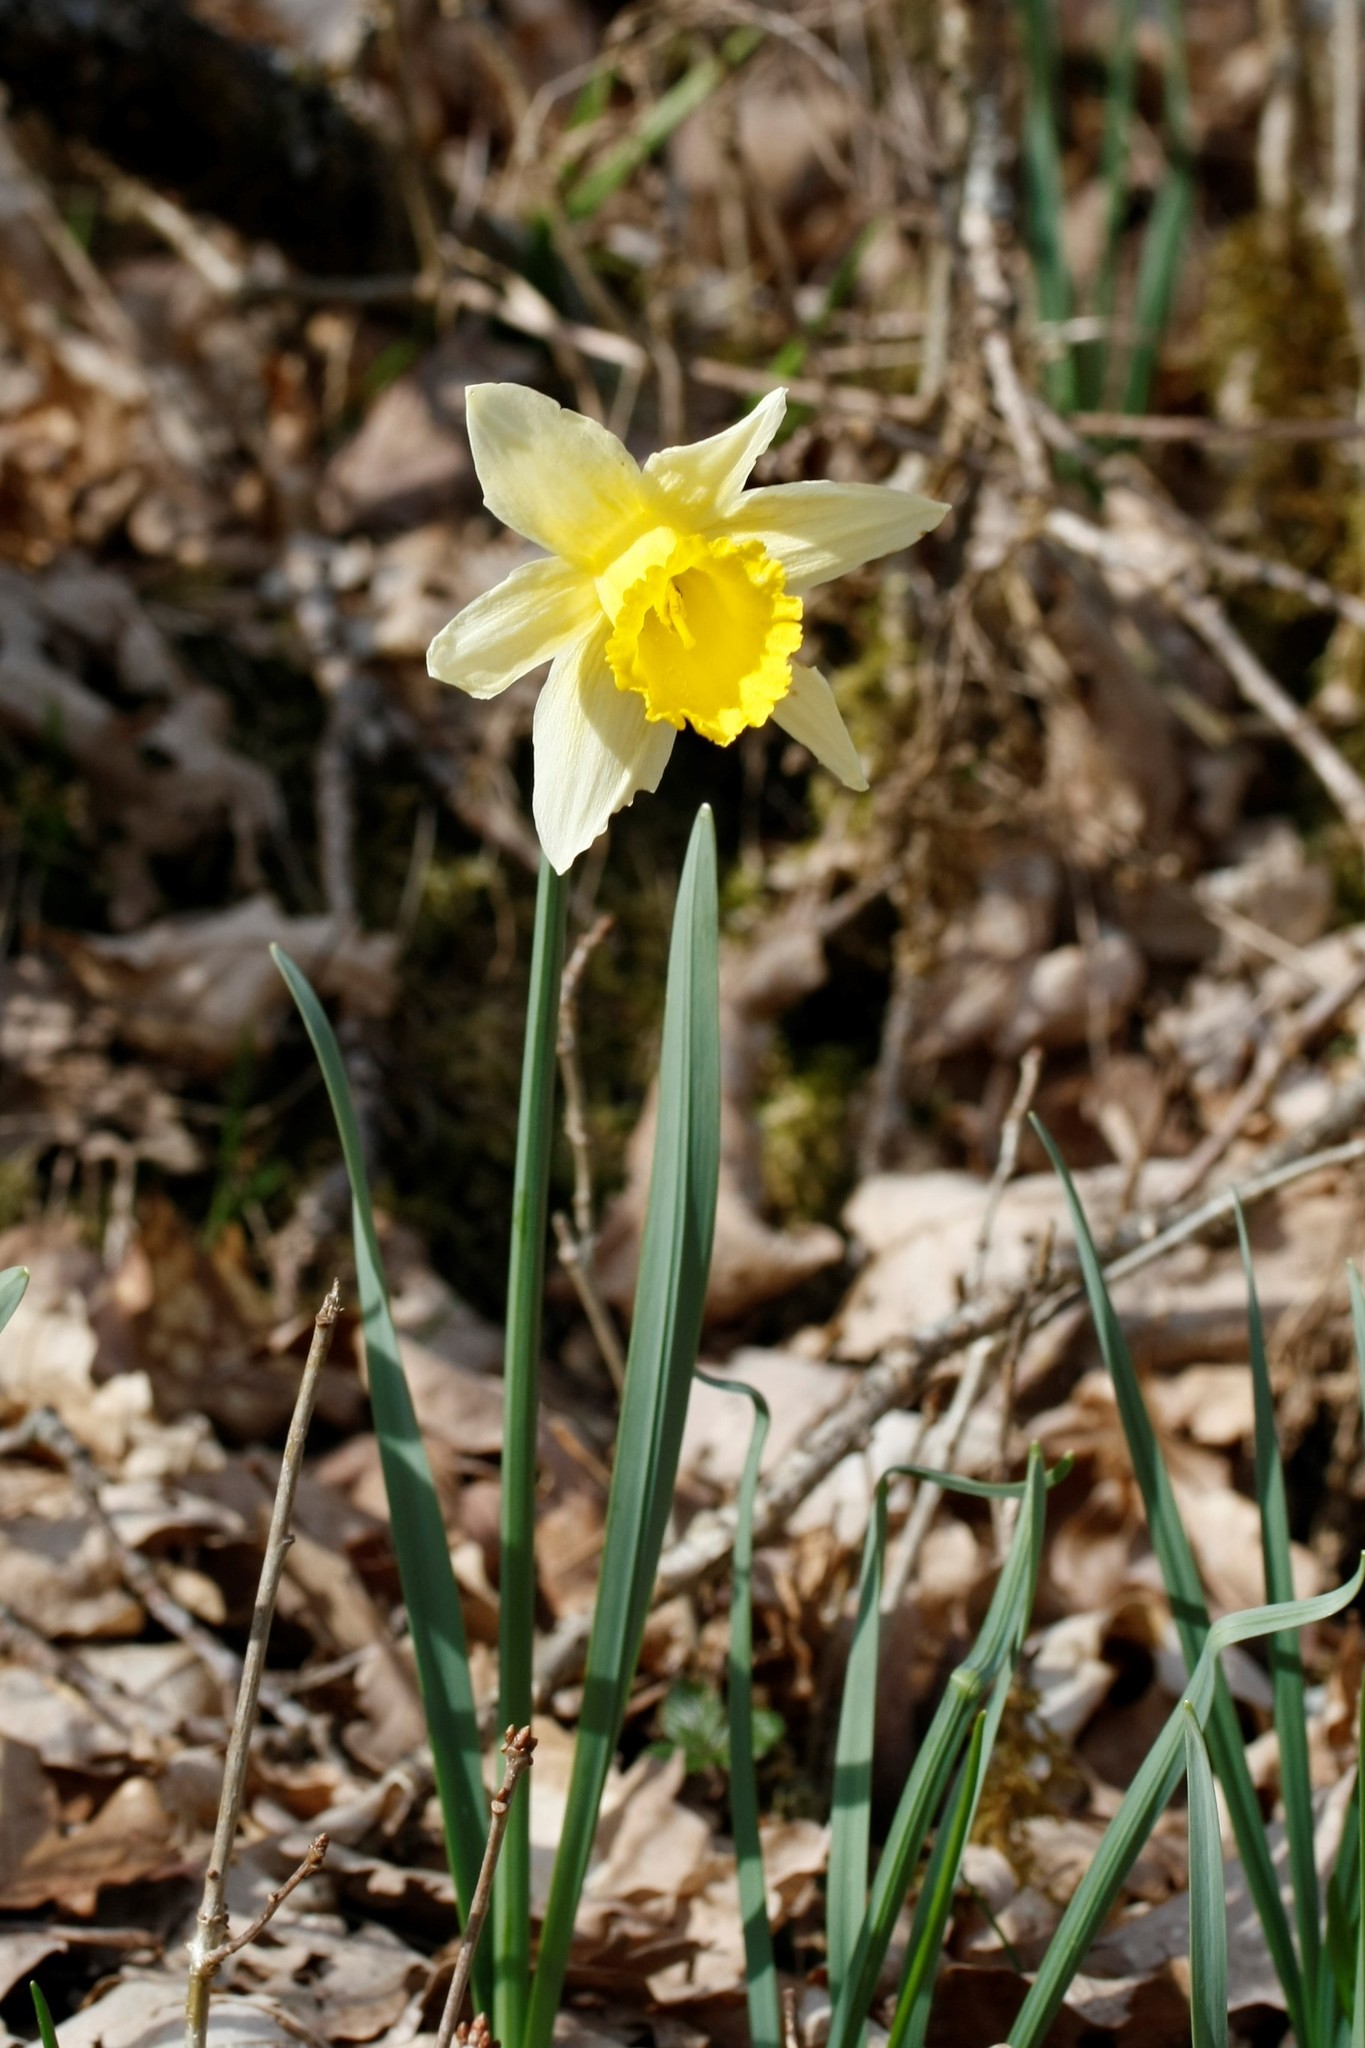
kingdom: Plantae
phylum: Tracheophyta
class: Liliopsida
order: Asparagales
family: Amaryllidaceae
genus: Narcissus
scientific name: Narcissus pseudonarcissus
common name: Daffodil
